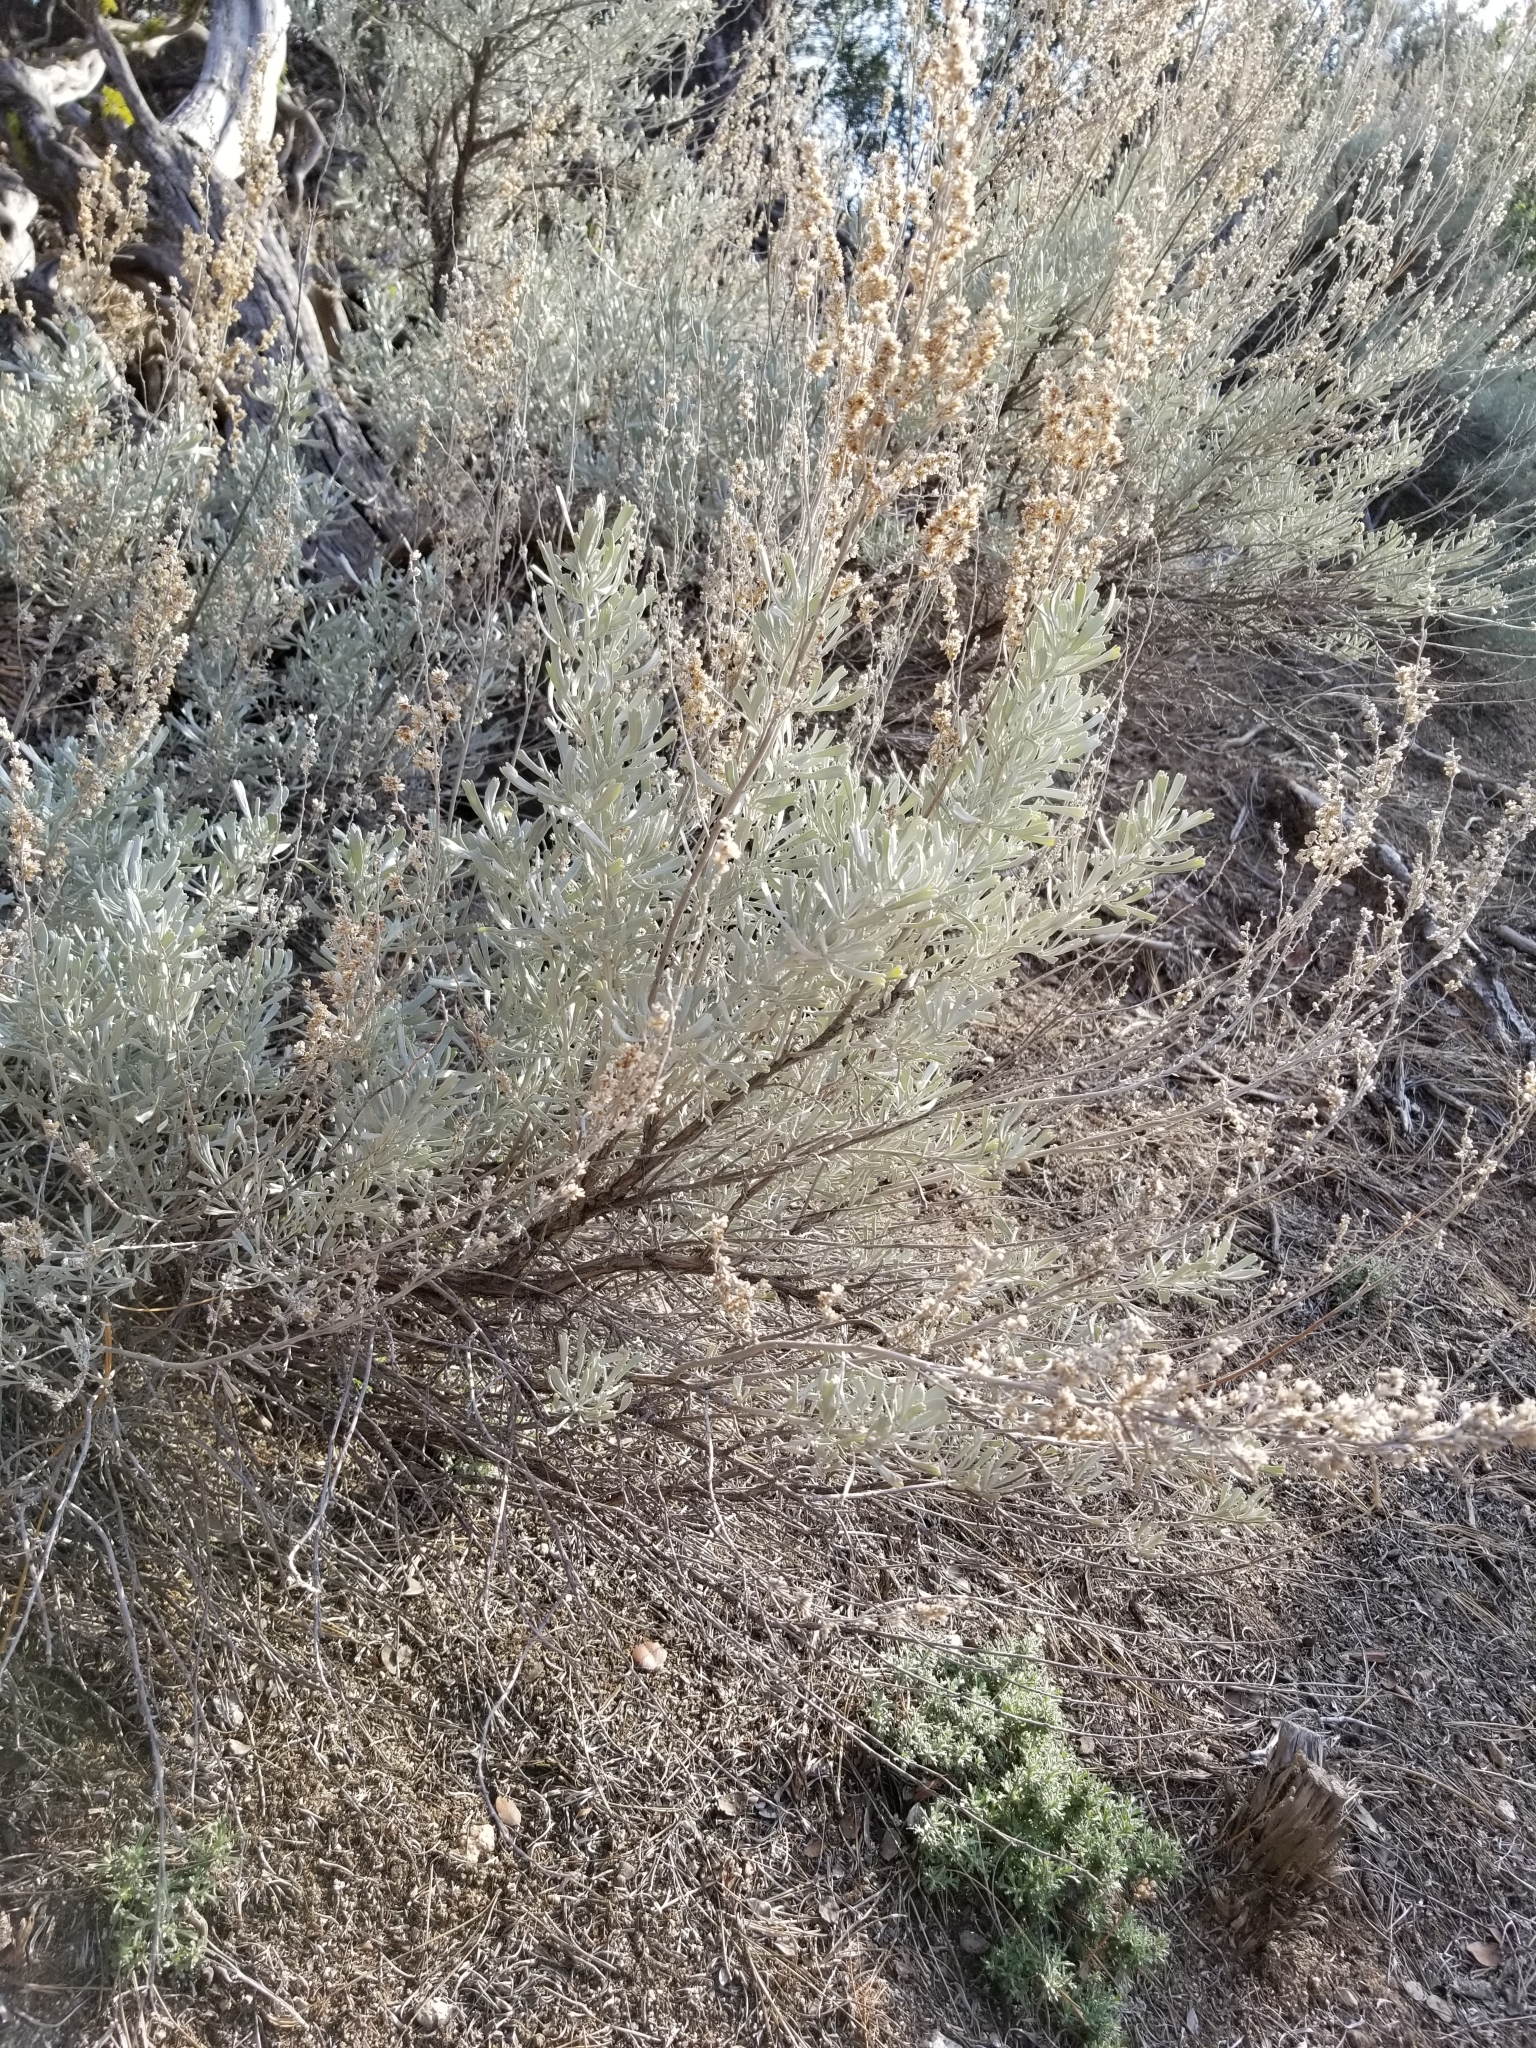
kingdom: Plantae
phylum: Tracheophyta
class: Magnoliopsida
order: Asterales
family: Asteraceae
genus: Artemisia
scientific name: Artemisia tridentata
